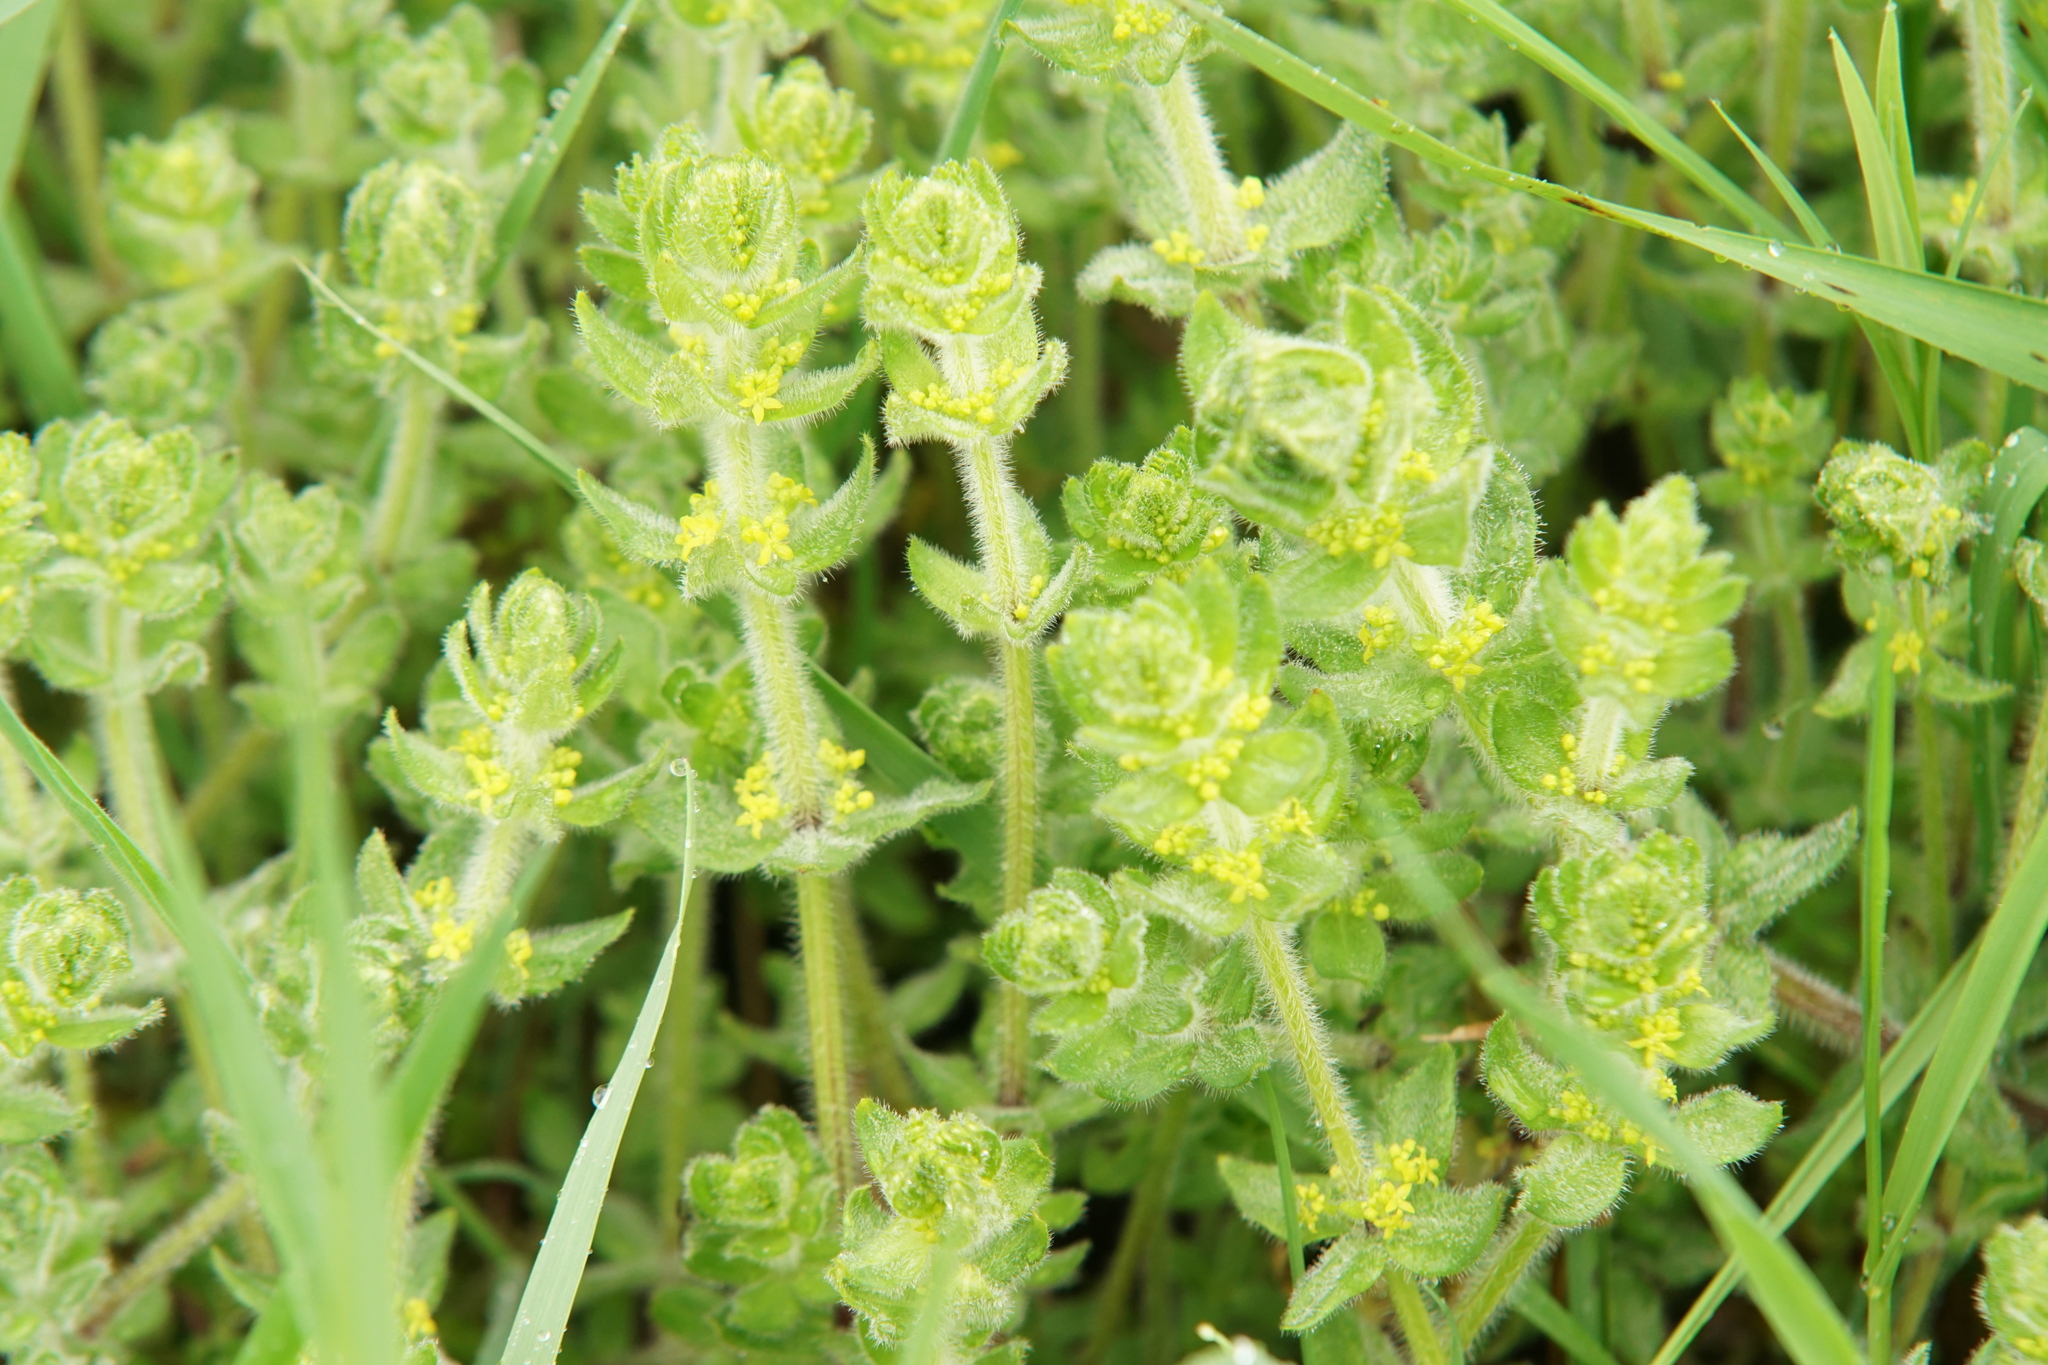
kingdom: Plantae
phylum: Tracheophyta
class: Magnoliopsida
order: Gentianales
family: Rubiaceae
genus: Cruciata
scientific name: Cruciata laevipes
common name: Crosswort
